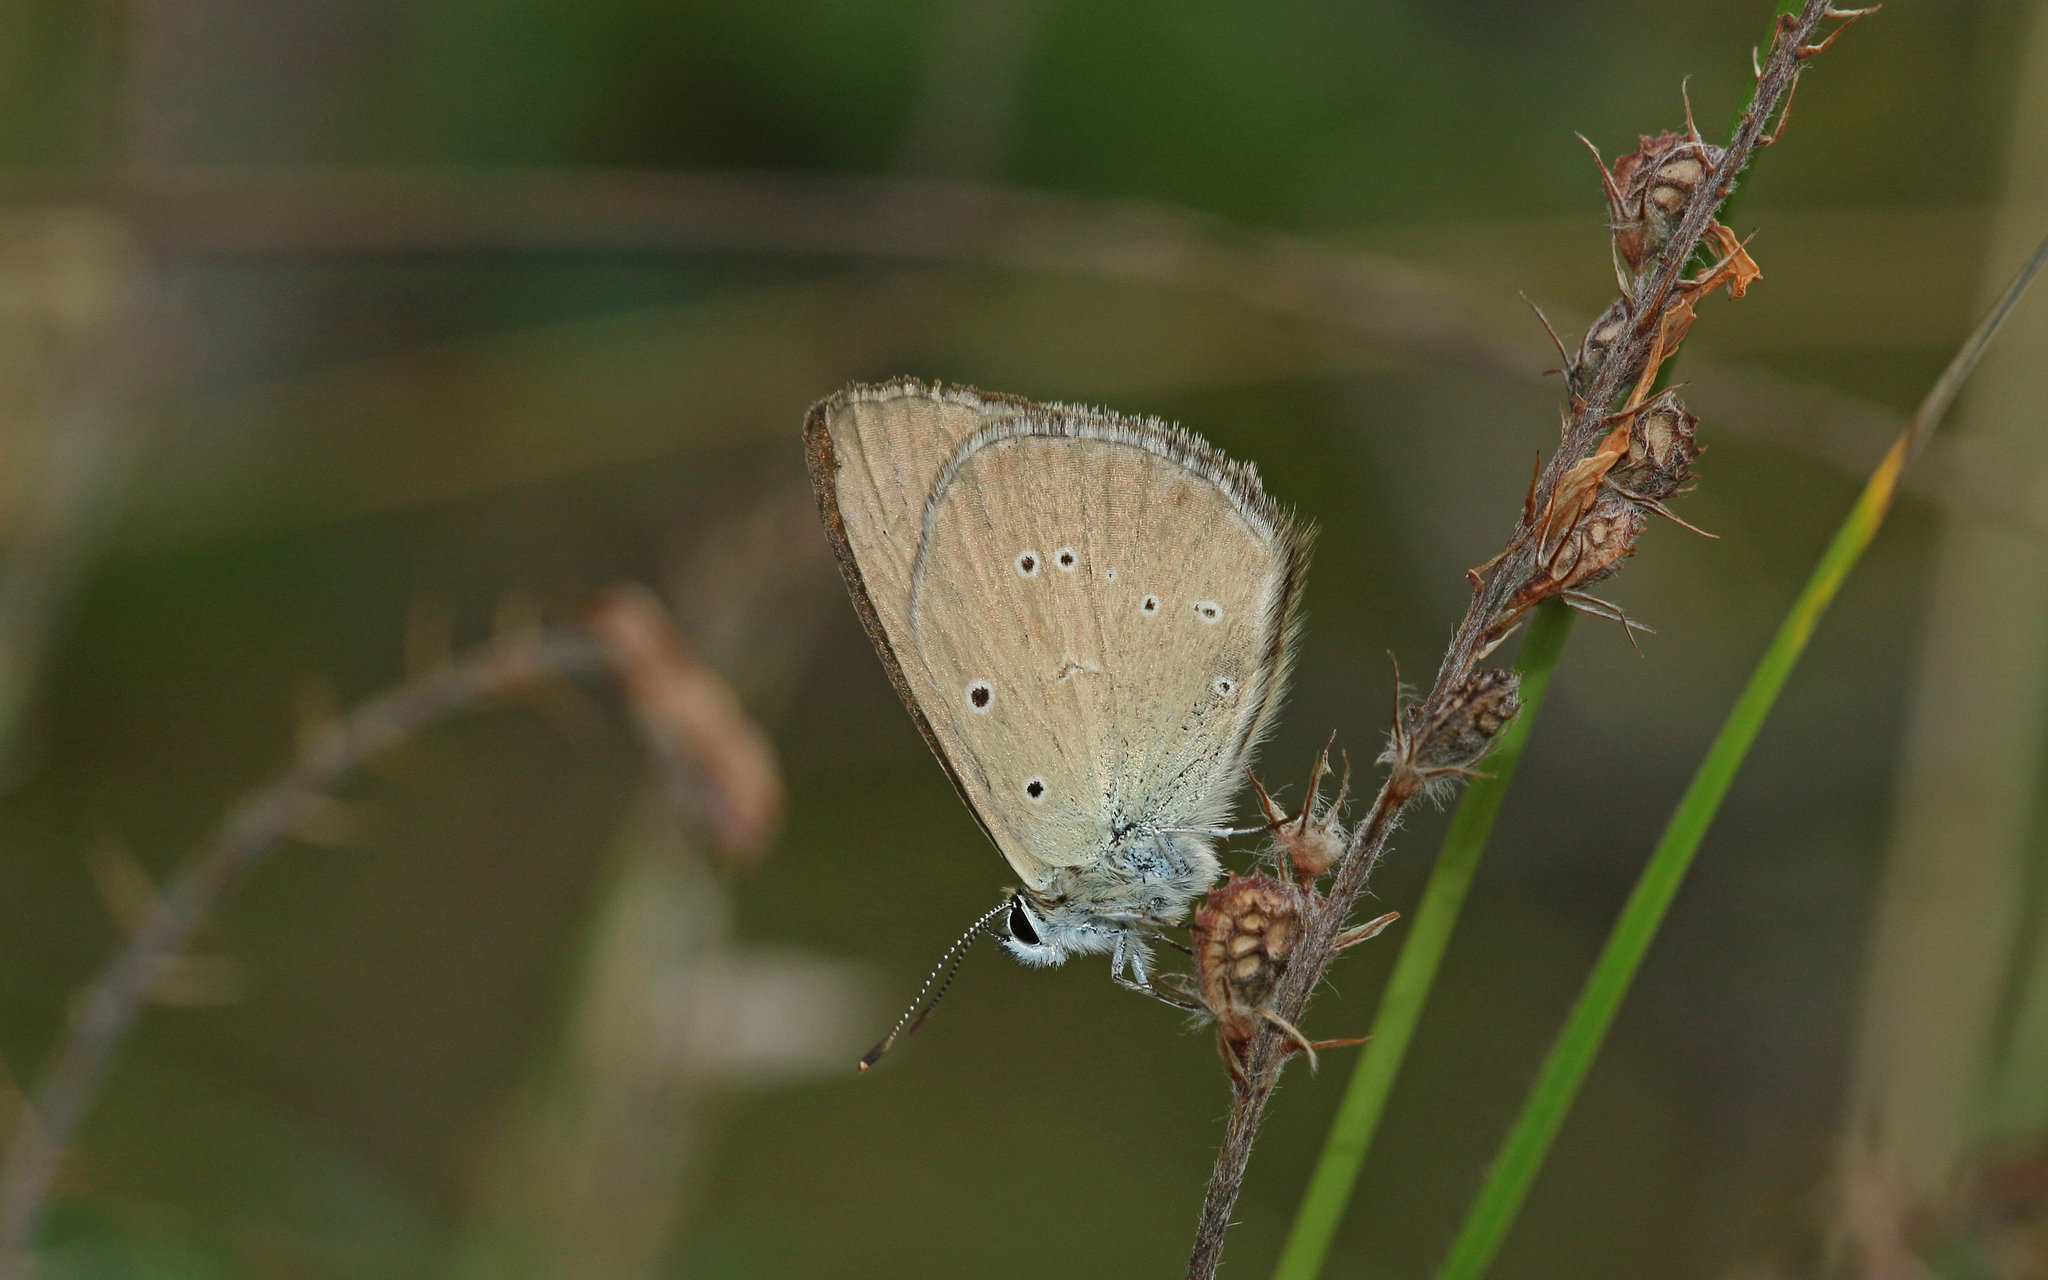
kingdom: Animalia
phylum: Arthropoda
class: Insecta
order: Lepidoptera
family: Lycaenidae
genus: Agrodiaetus
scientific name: Agrodiaetus humedasae
